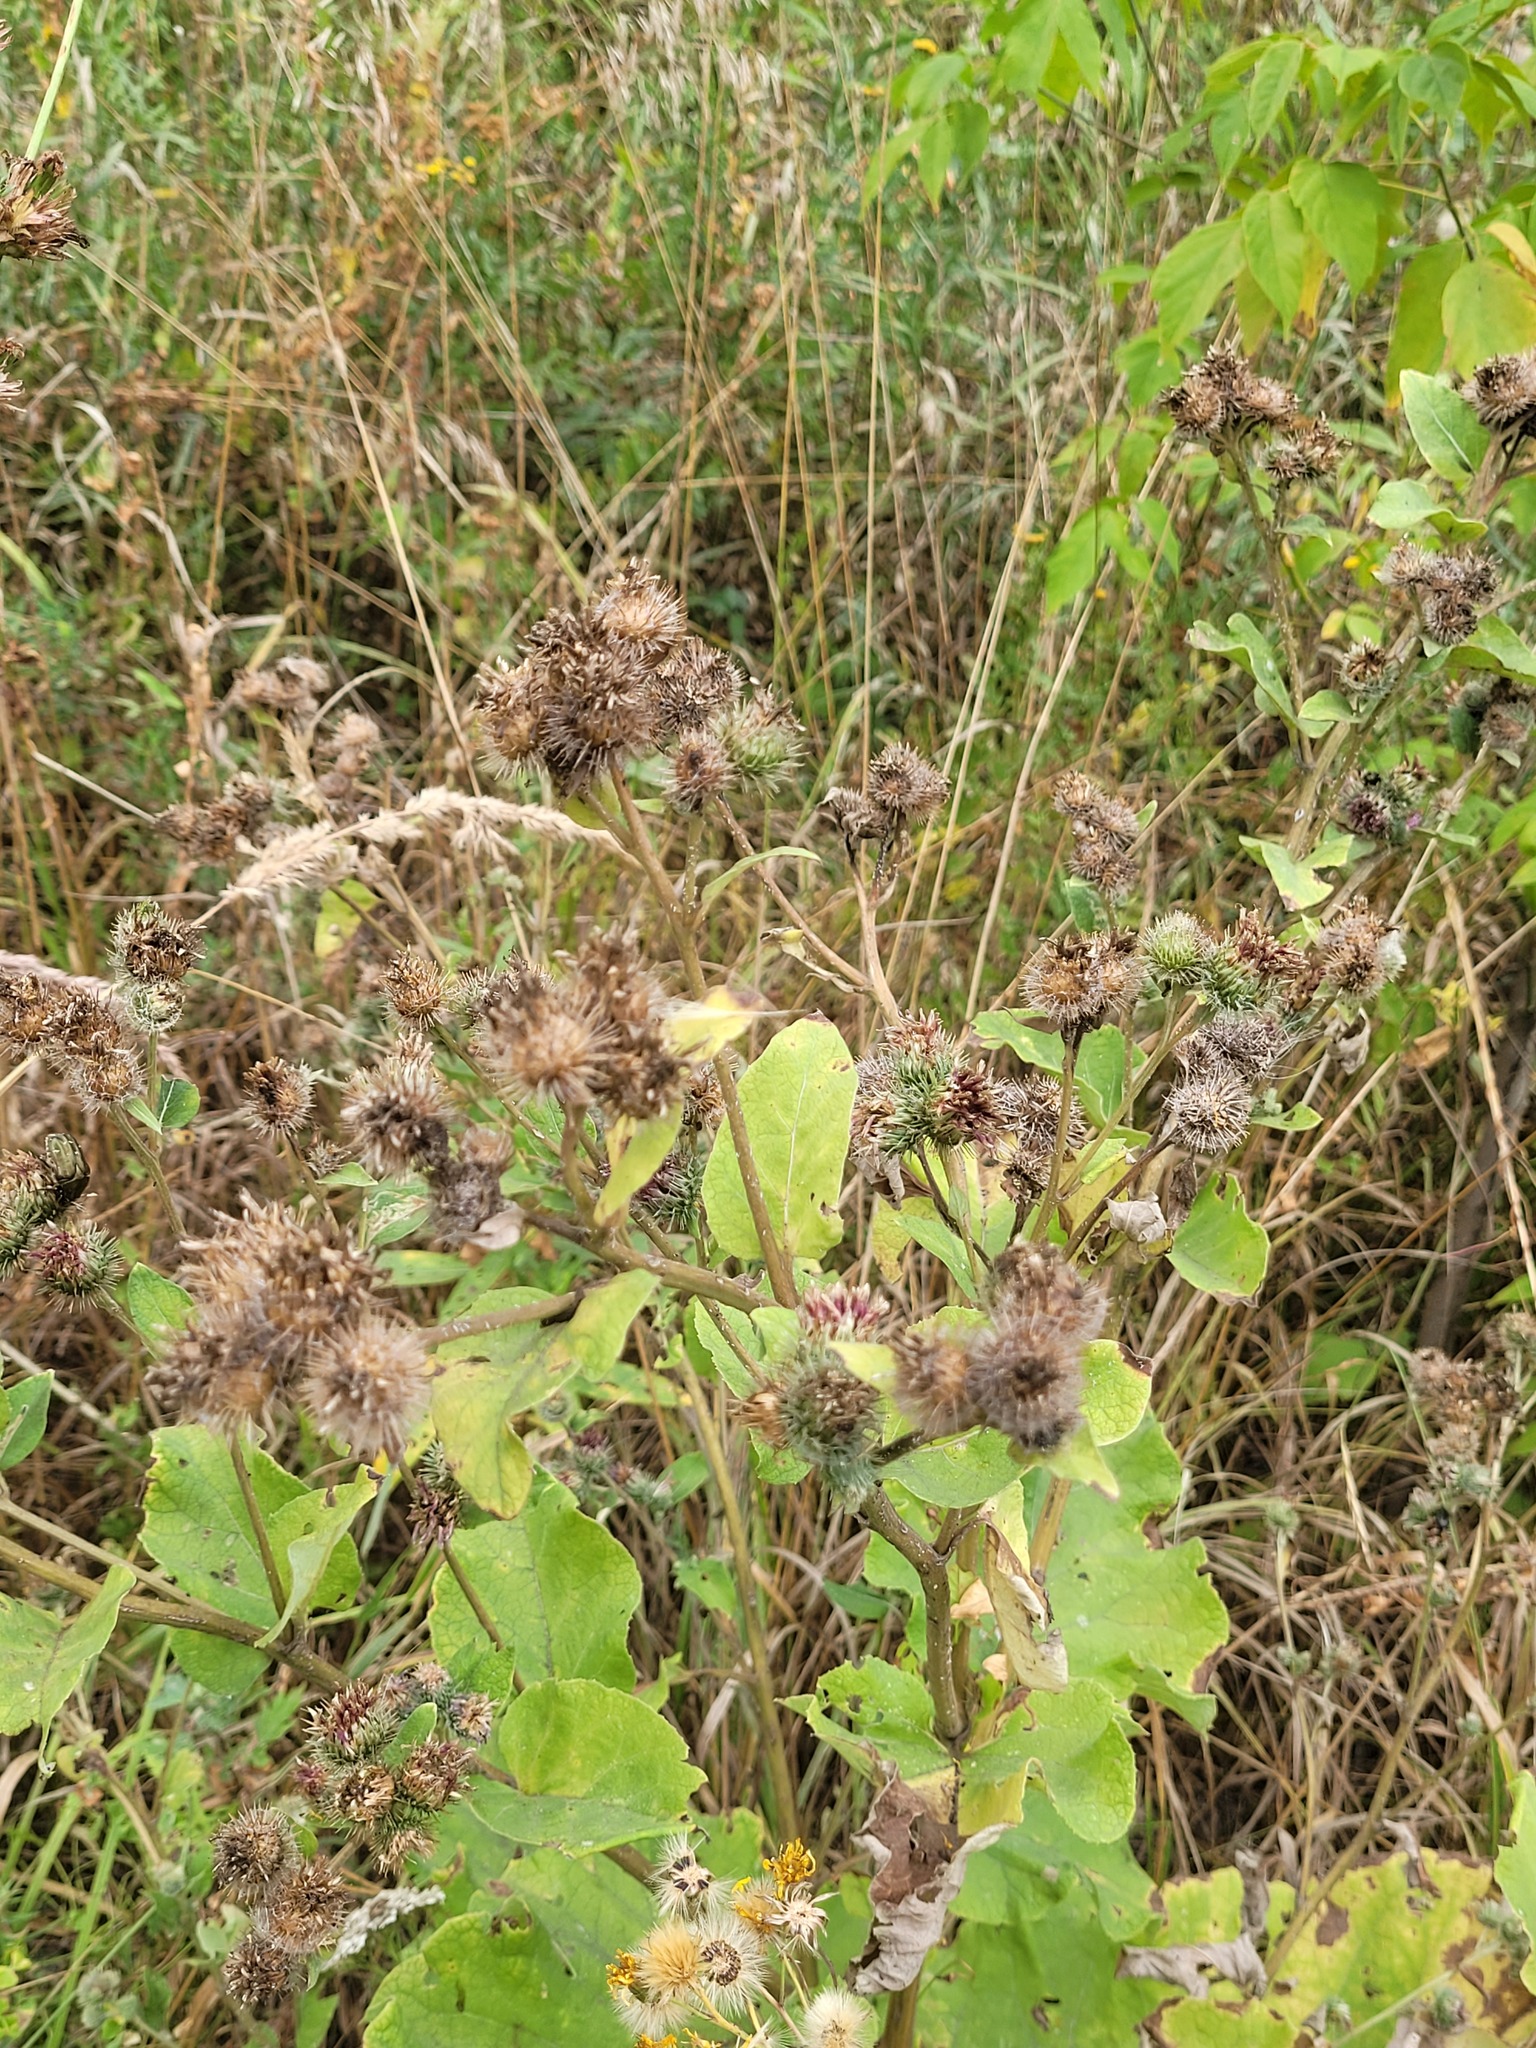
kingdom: Plantae
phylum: Tracheophyta
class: Magnoliopsida
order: Asterales
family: Asteraceae
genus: Arctium
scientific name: Arctium tomentosum
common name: Woolly burdock
